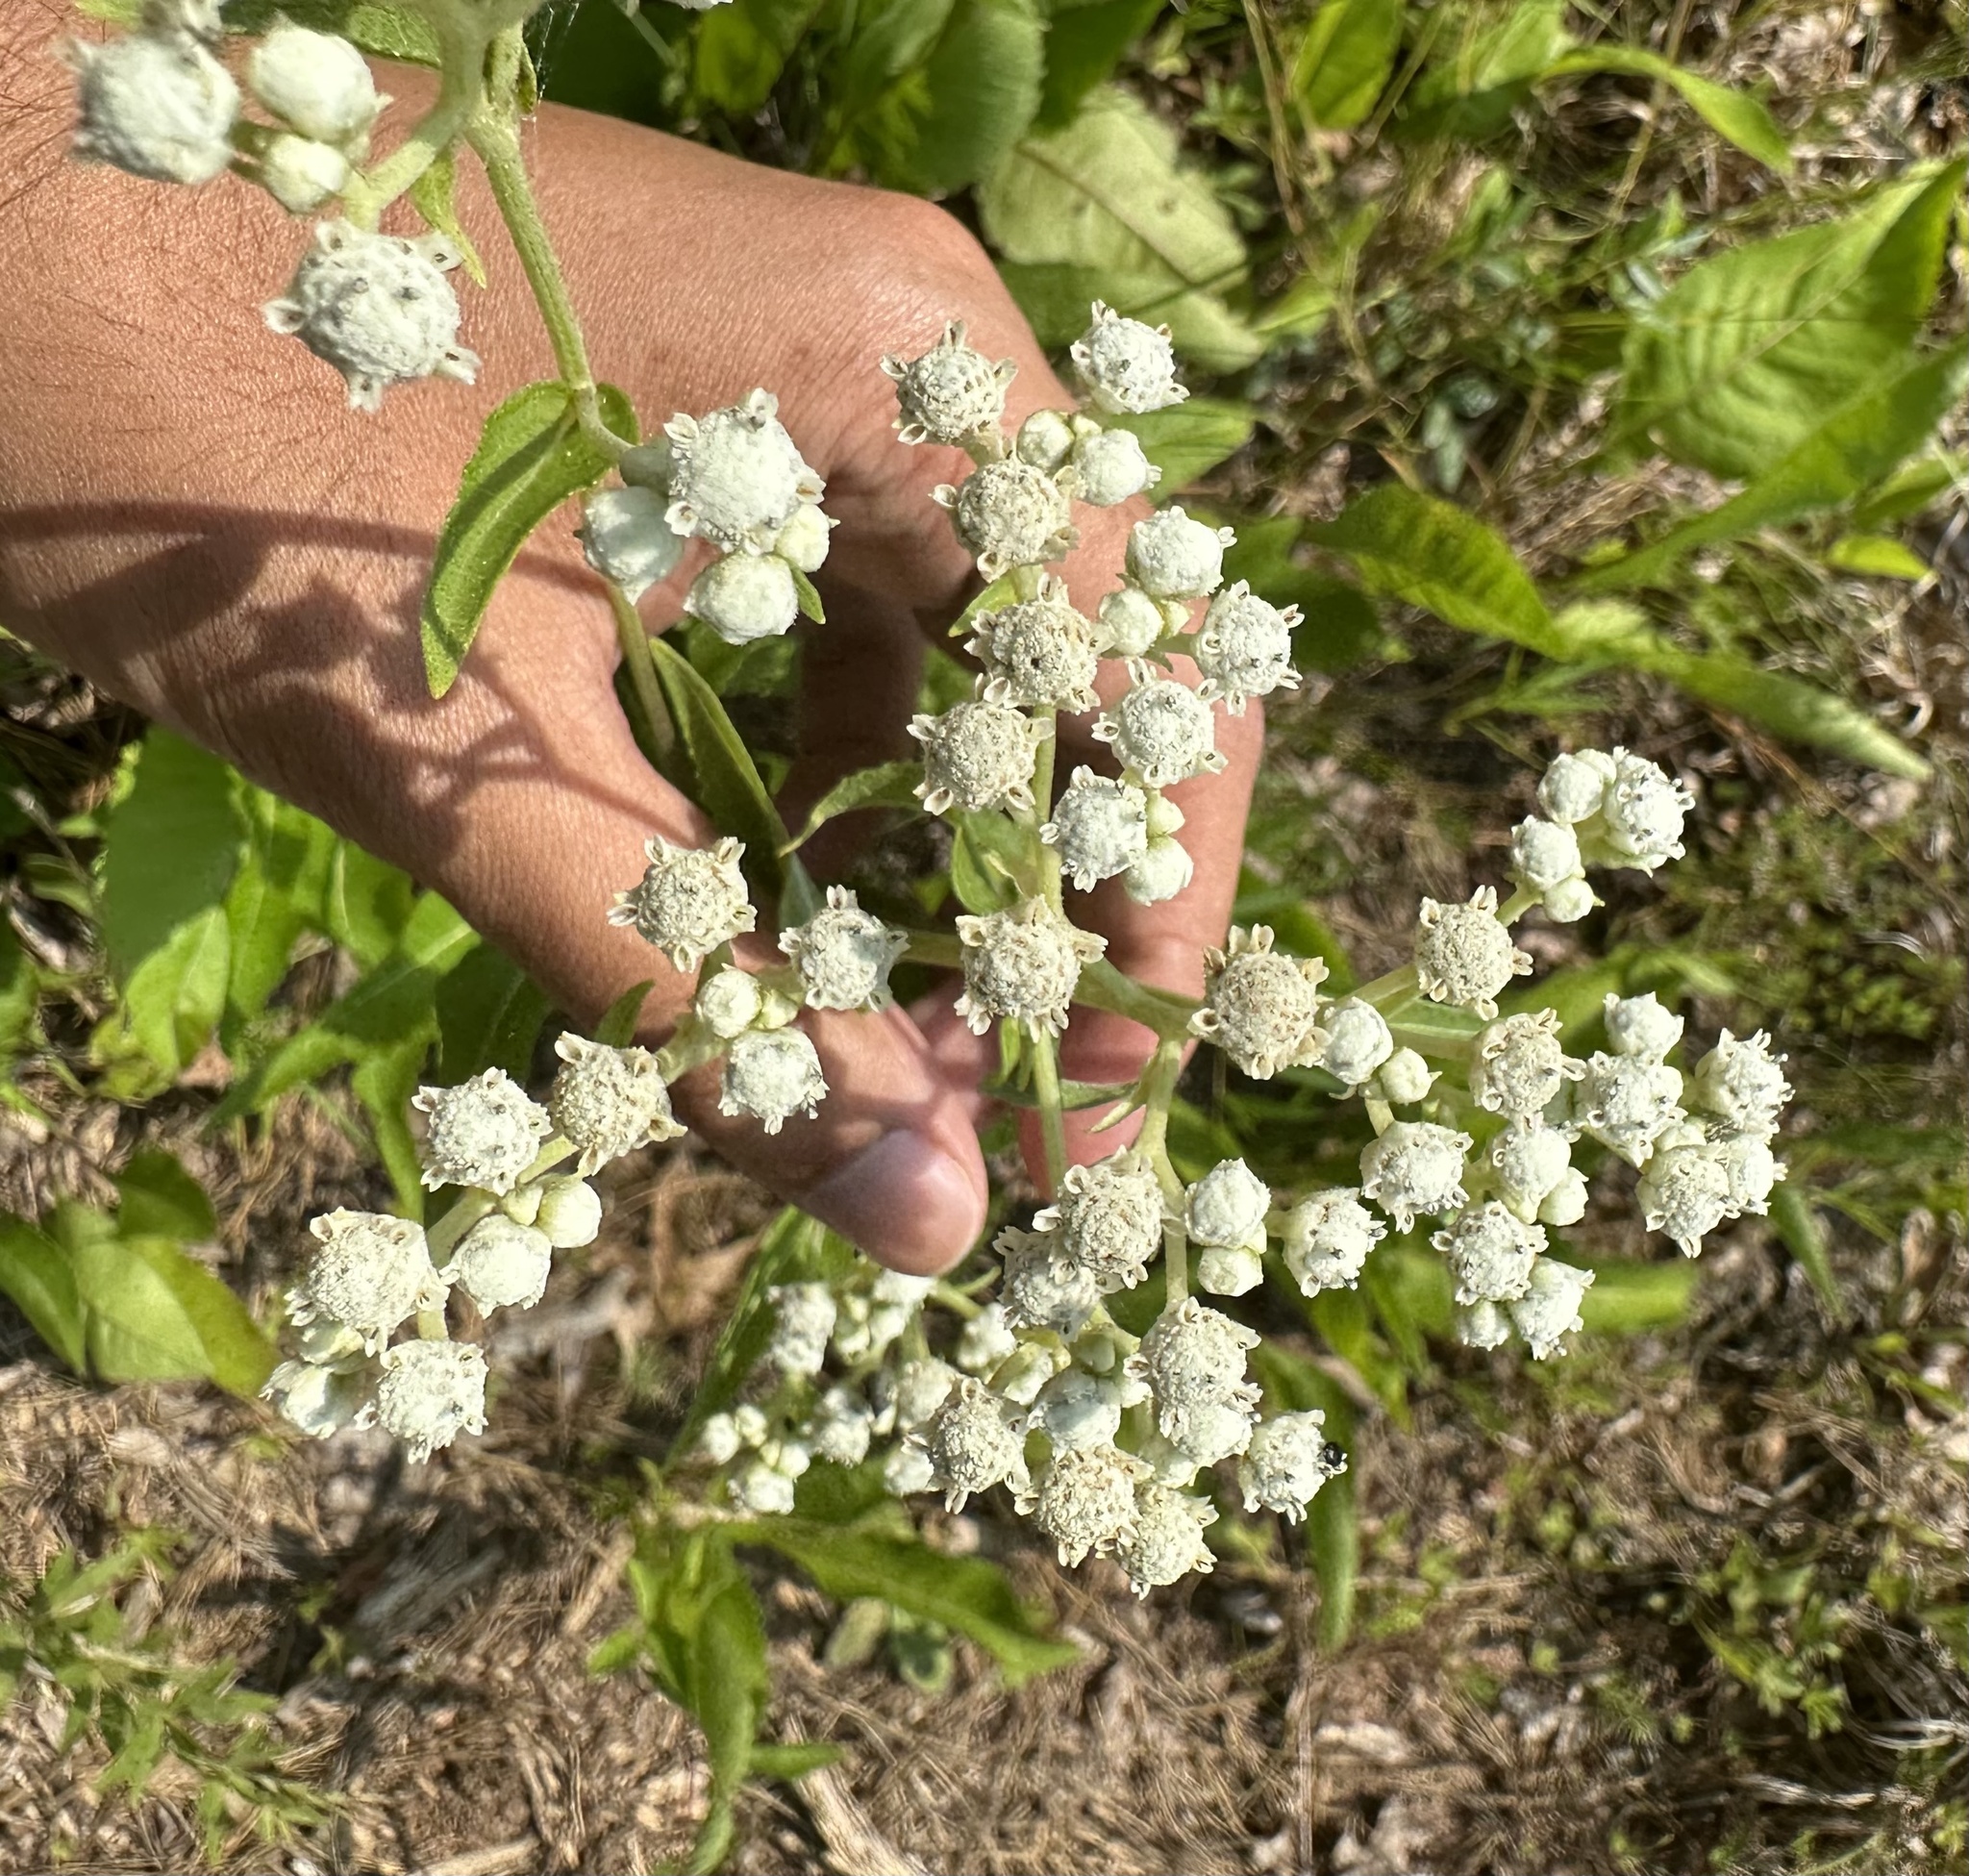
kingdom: Plantae
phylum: Tracheophyta
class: Magnoliopsida
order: Asterales
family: Asteraceae
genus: Parthenium
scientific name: Parthenium integrifolium
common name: American feverfew
